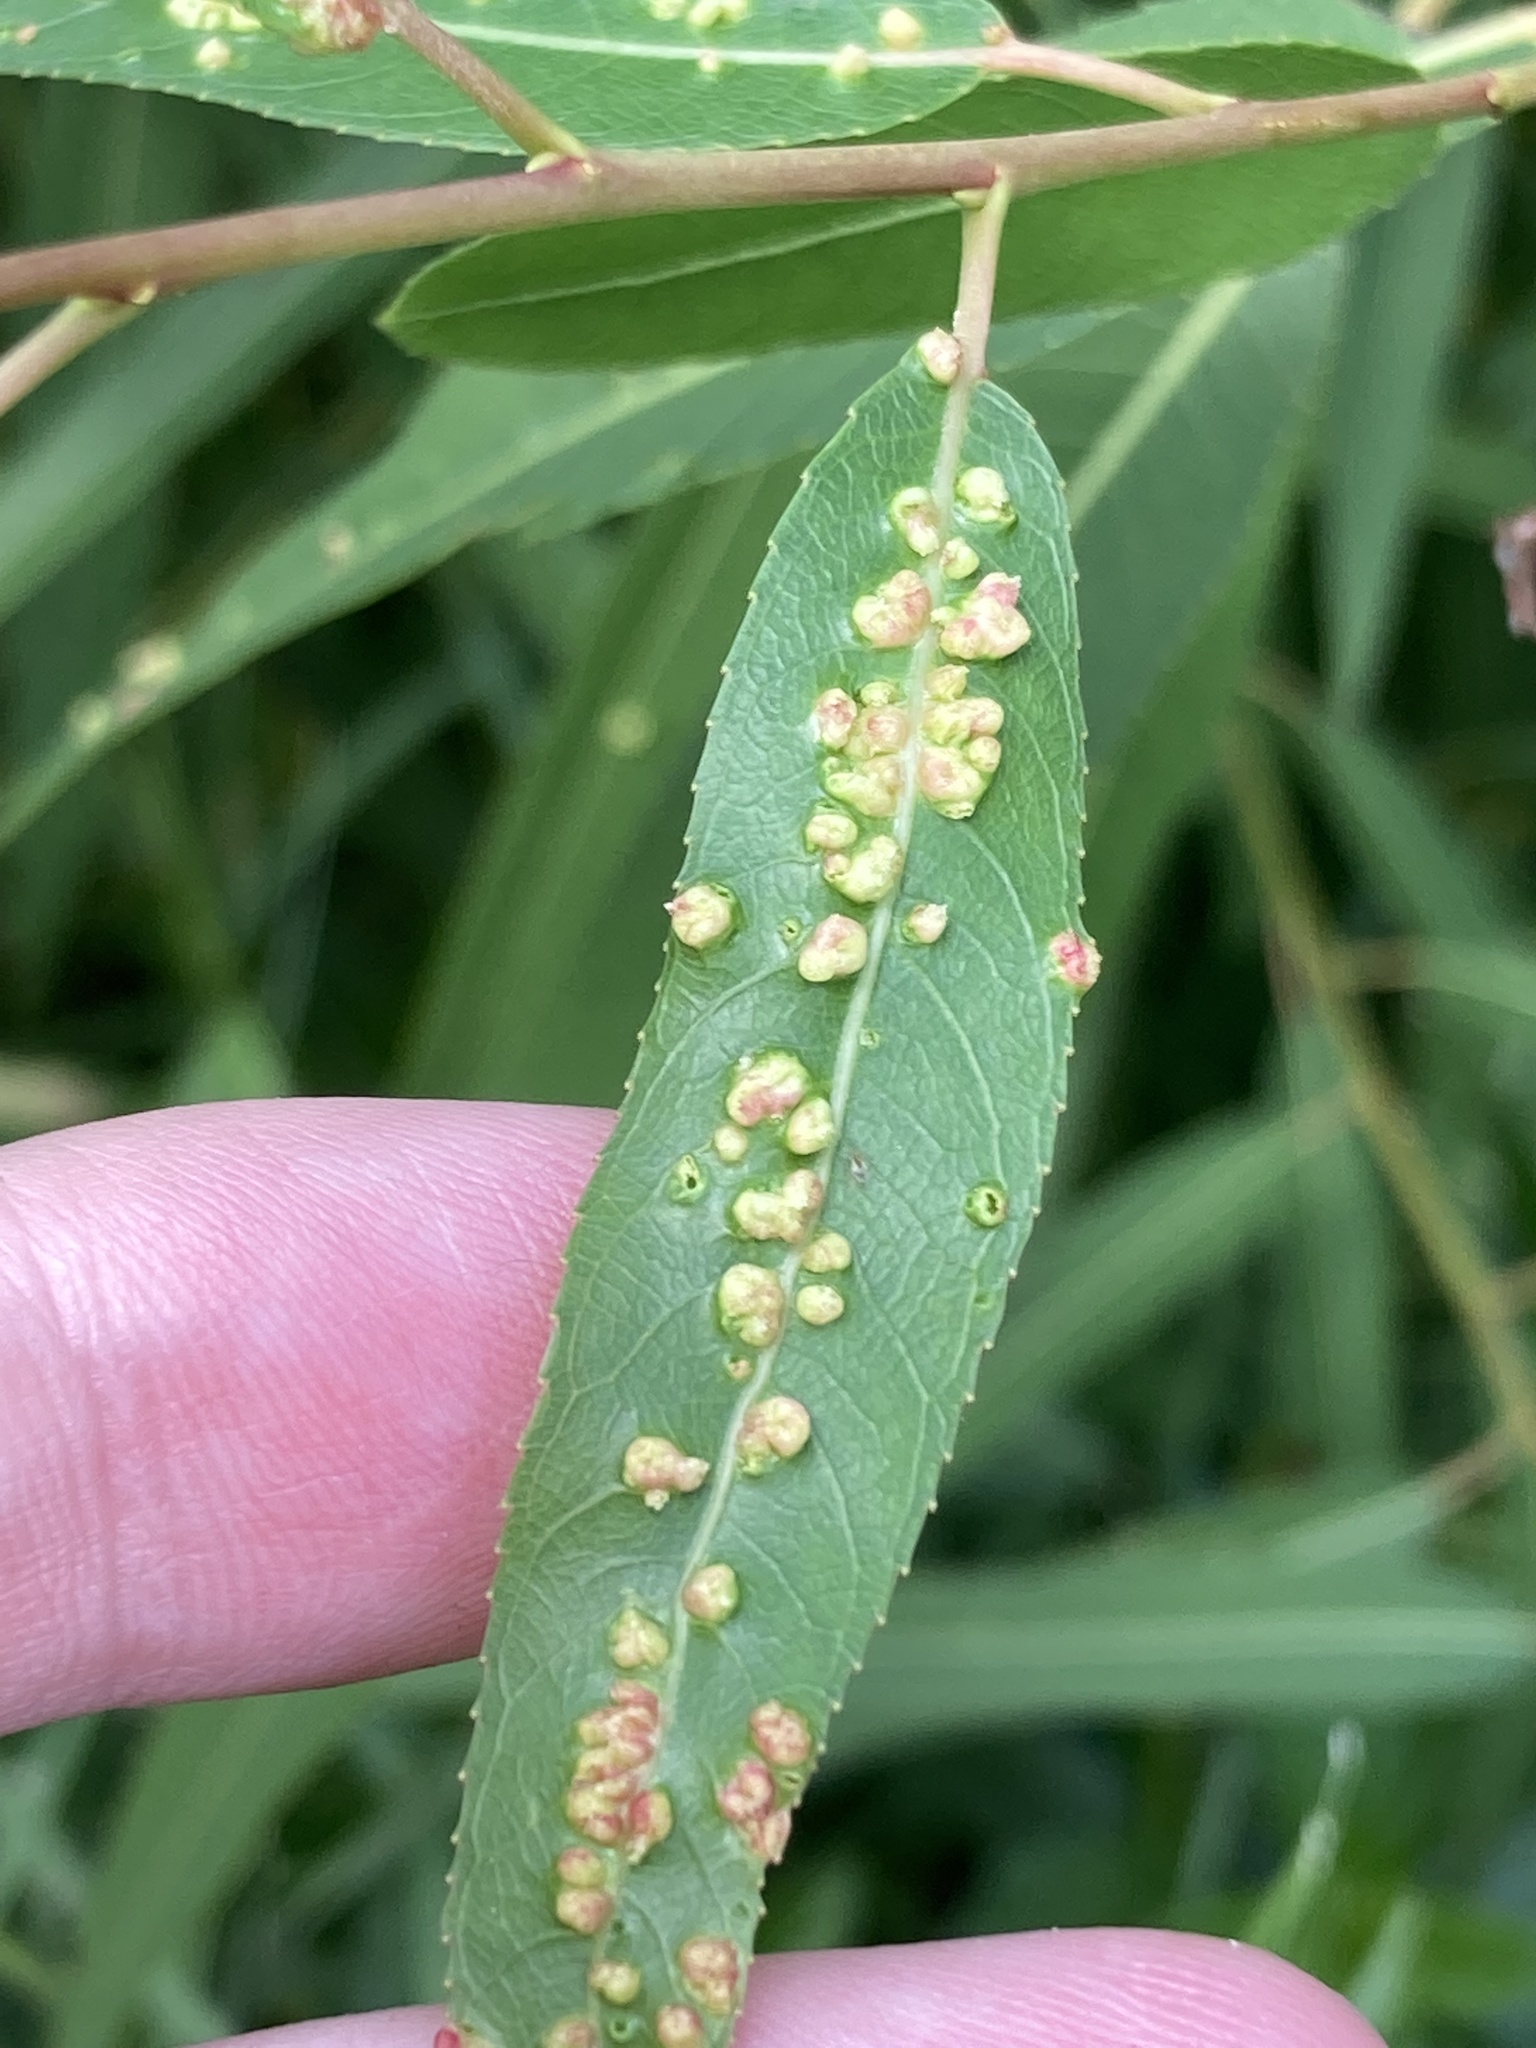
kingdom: Animalia
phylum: Arthropoda
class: Arachnida
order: Trombidiformes
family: Eriophyidae
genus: Aculus
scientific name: Aculus tetanothrix
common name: Willow bead gall mite
